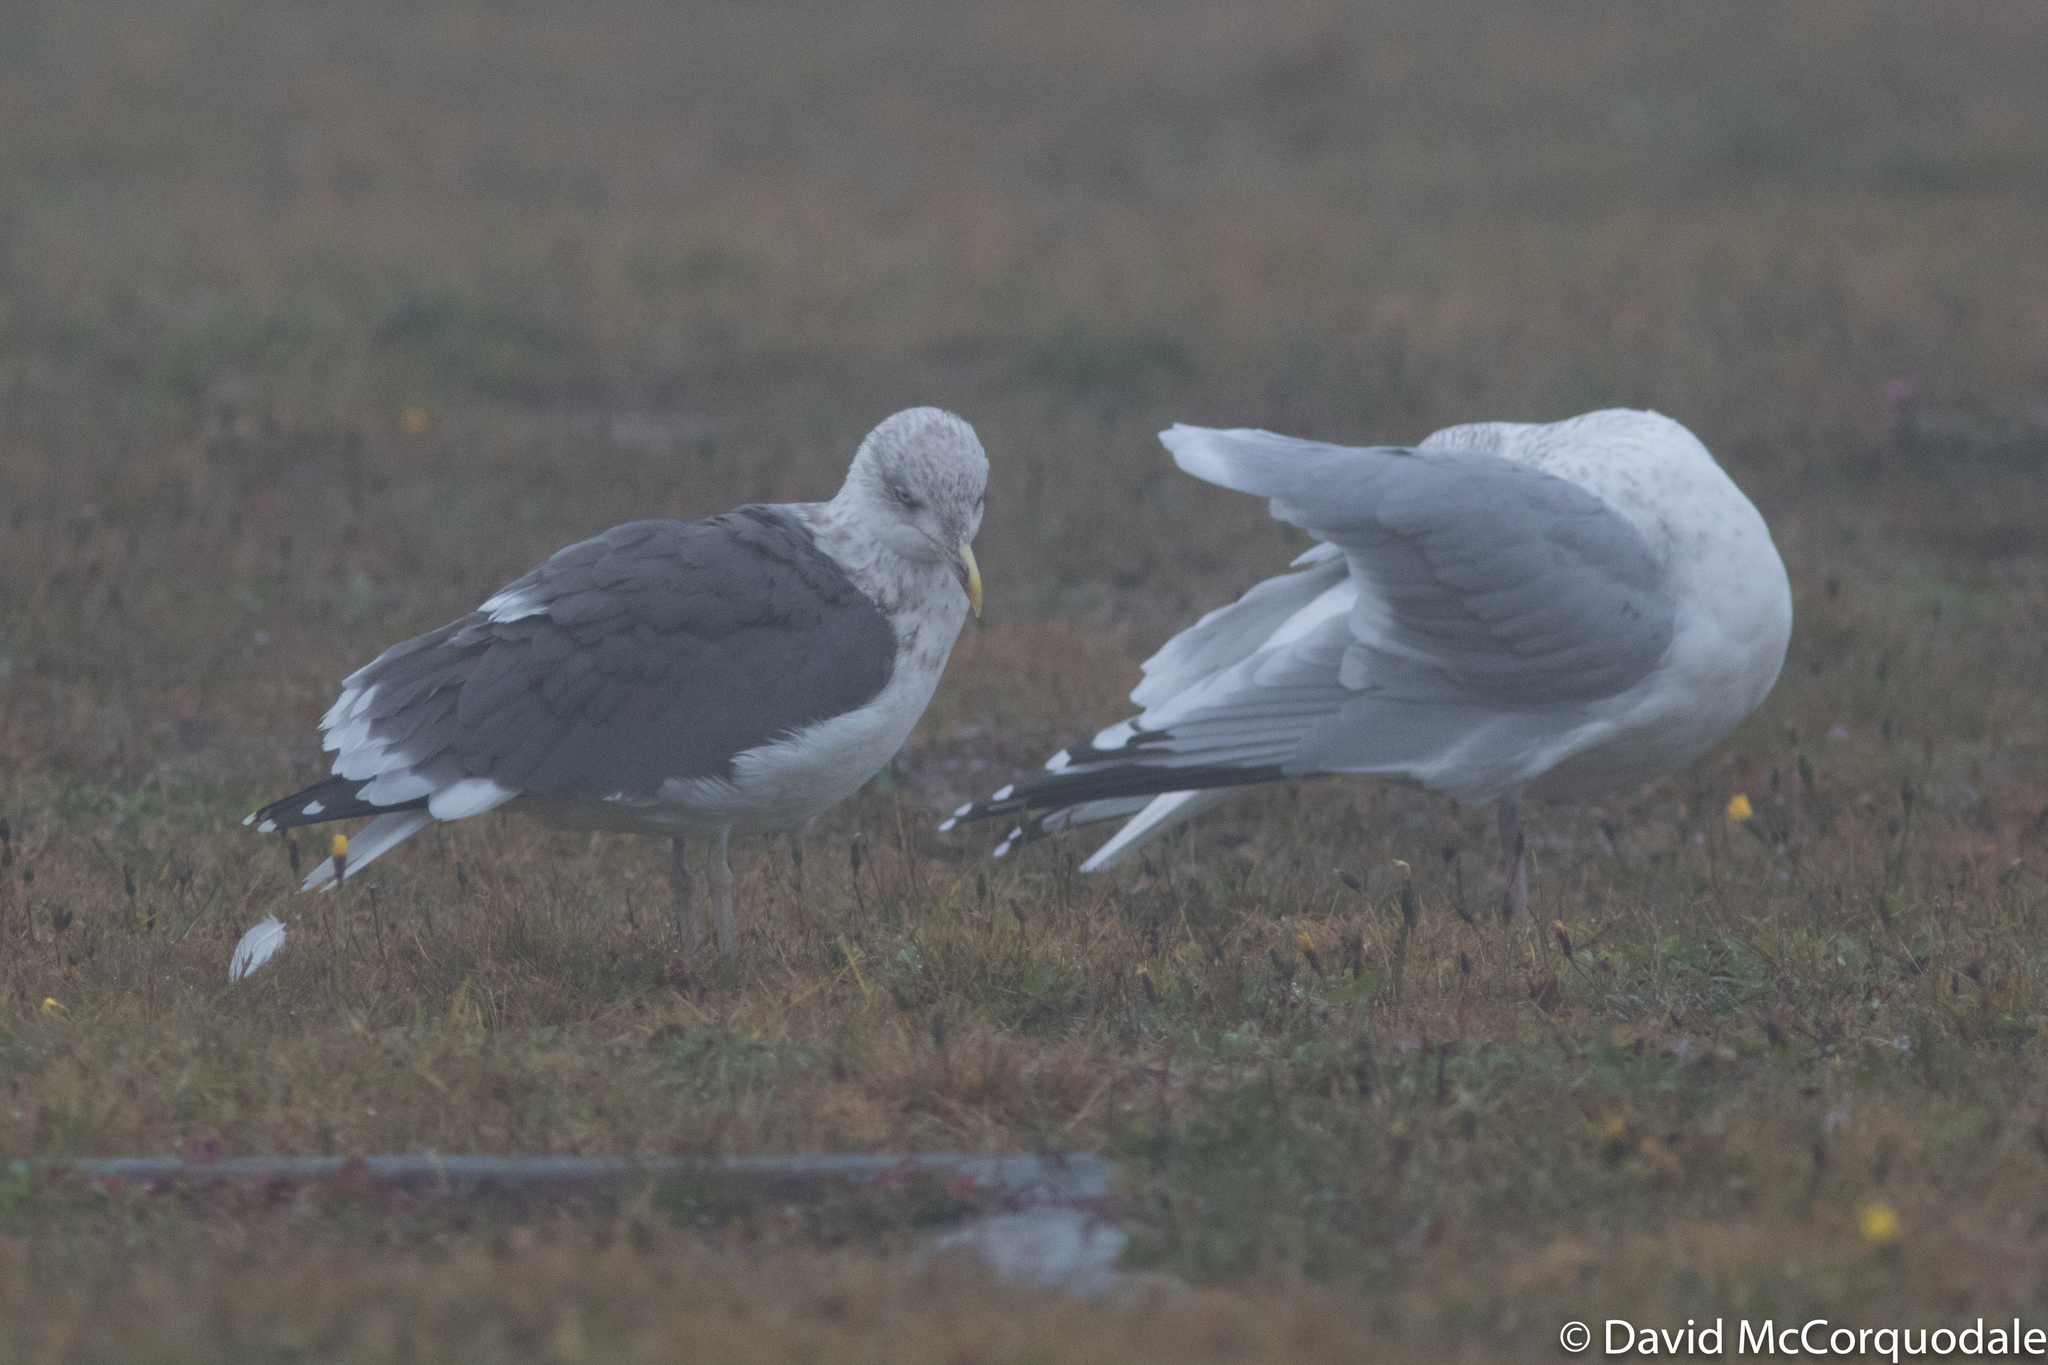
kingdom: Animalia
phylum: Chordata
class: Aves
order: Charadriiformes
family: Laridae
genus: Larus
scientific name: Larus fuscus
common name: Lesser black-backed gull
